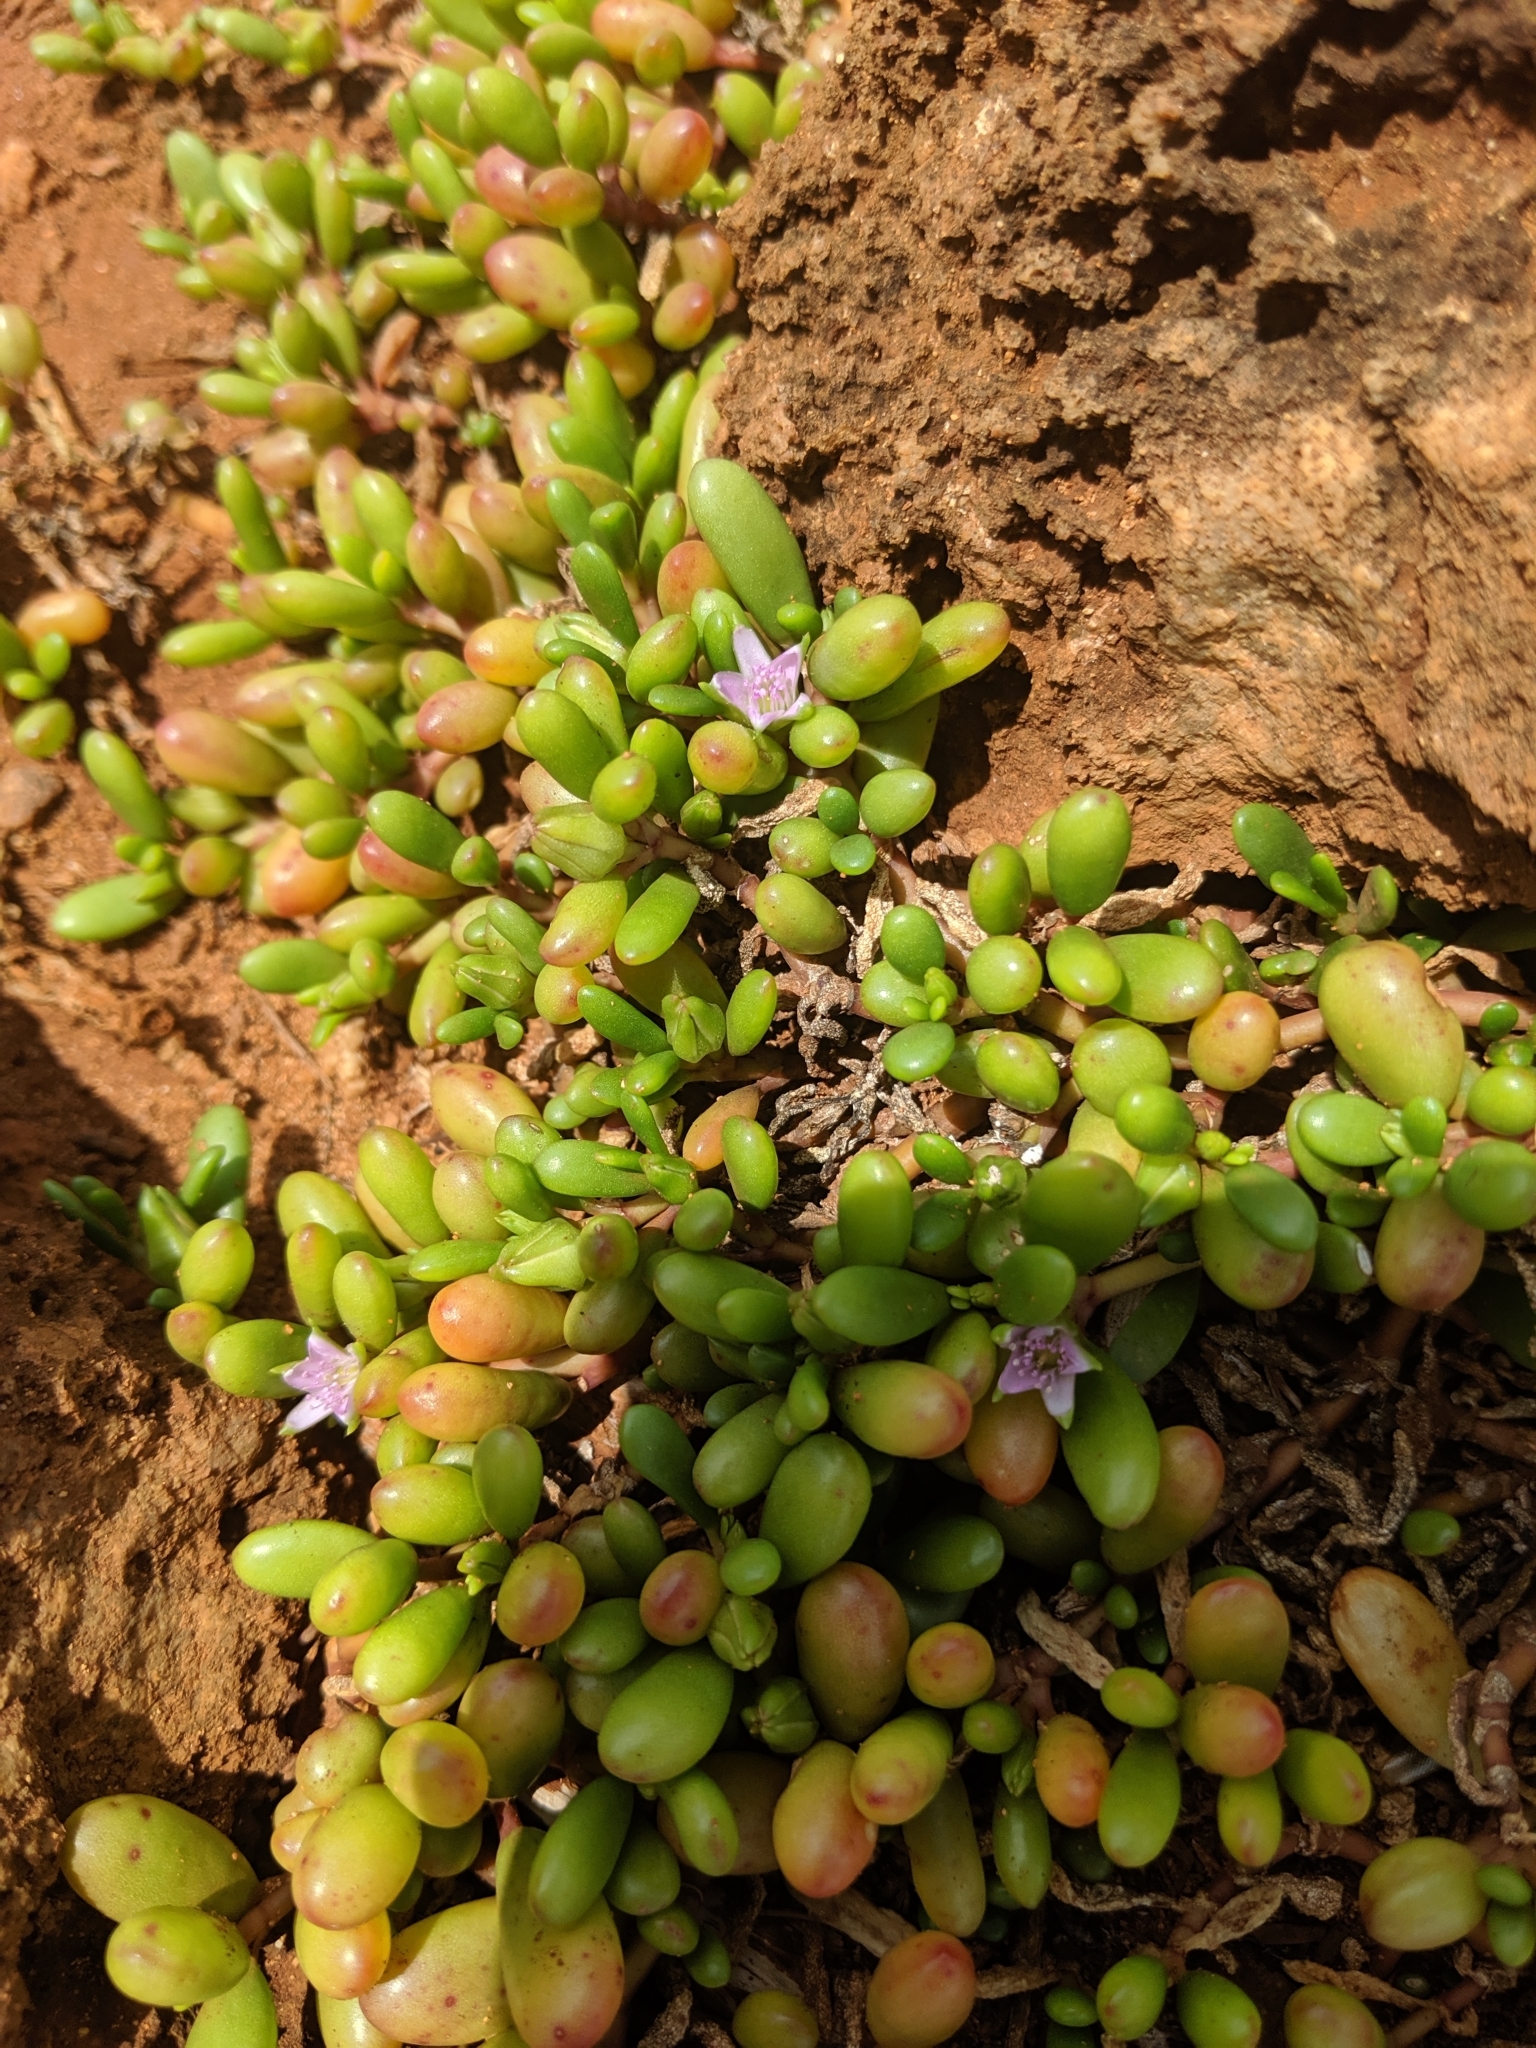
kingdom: Plantae
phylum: Tracheophyta
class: Magnoliopsida
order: Caryophyllales
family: Aizoaceae
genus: Sesuvium
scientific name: Sesuvium portulacastrum
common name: Sea-purslane
